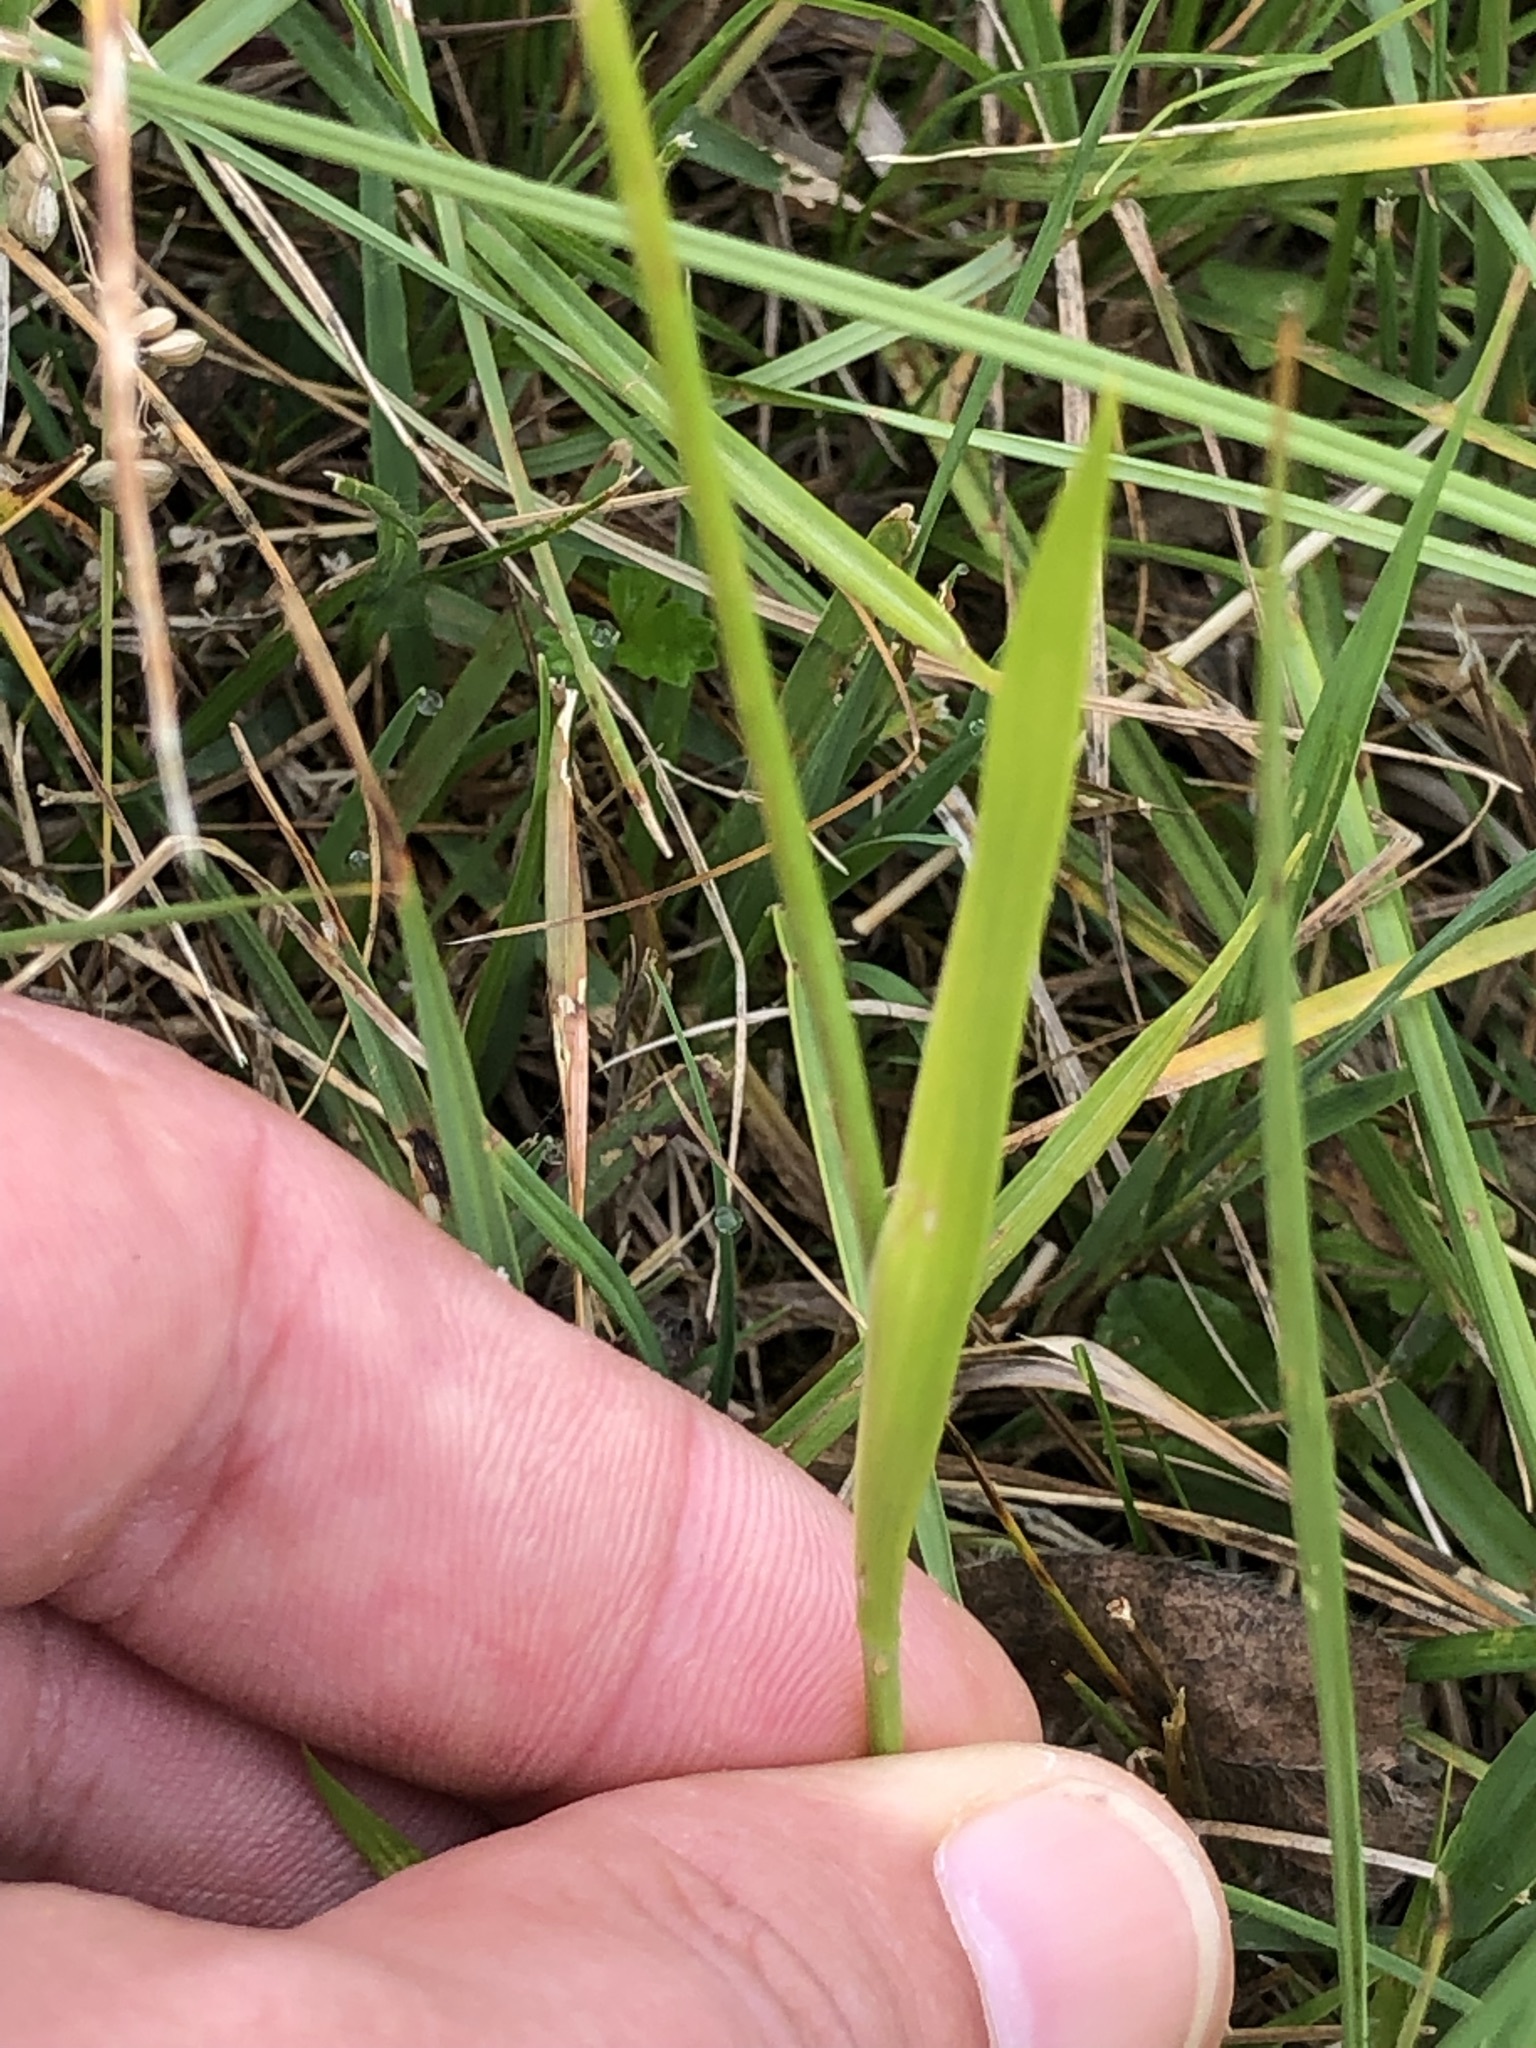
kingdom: Plantae
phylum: Tracheophyta
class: Liliopsida
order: Alismatales
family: Tofieldiaceae
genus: Tofieldia
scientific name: Tofieldia calyculata
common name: German-asphodel
